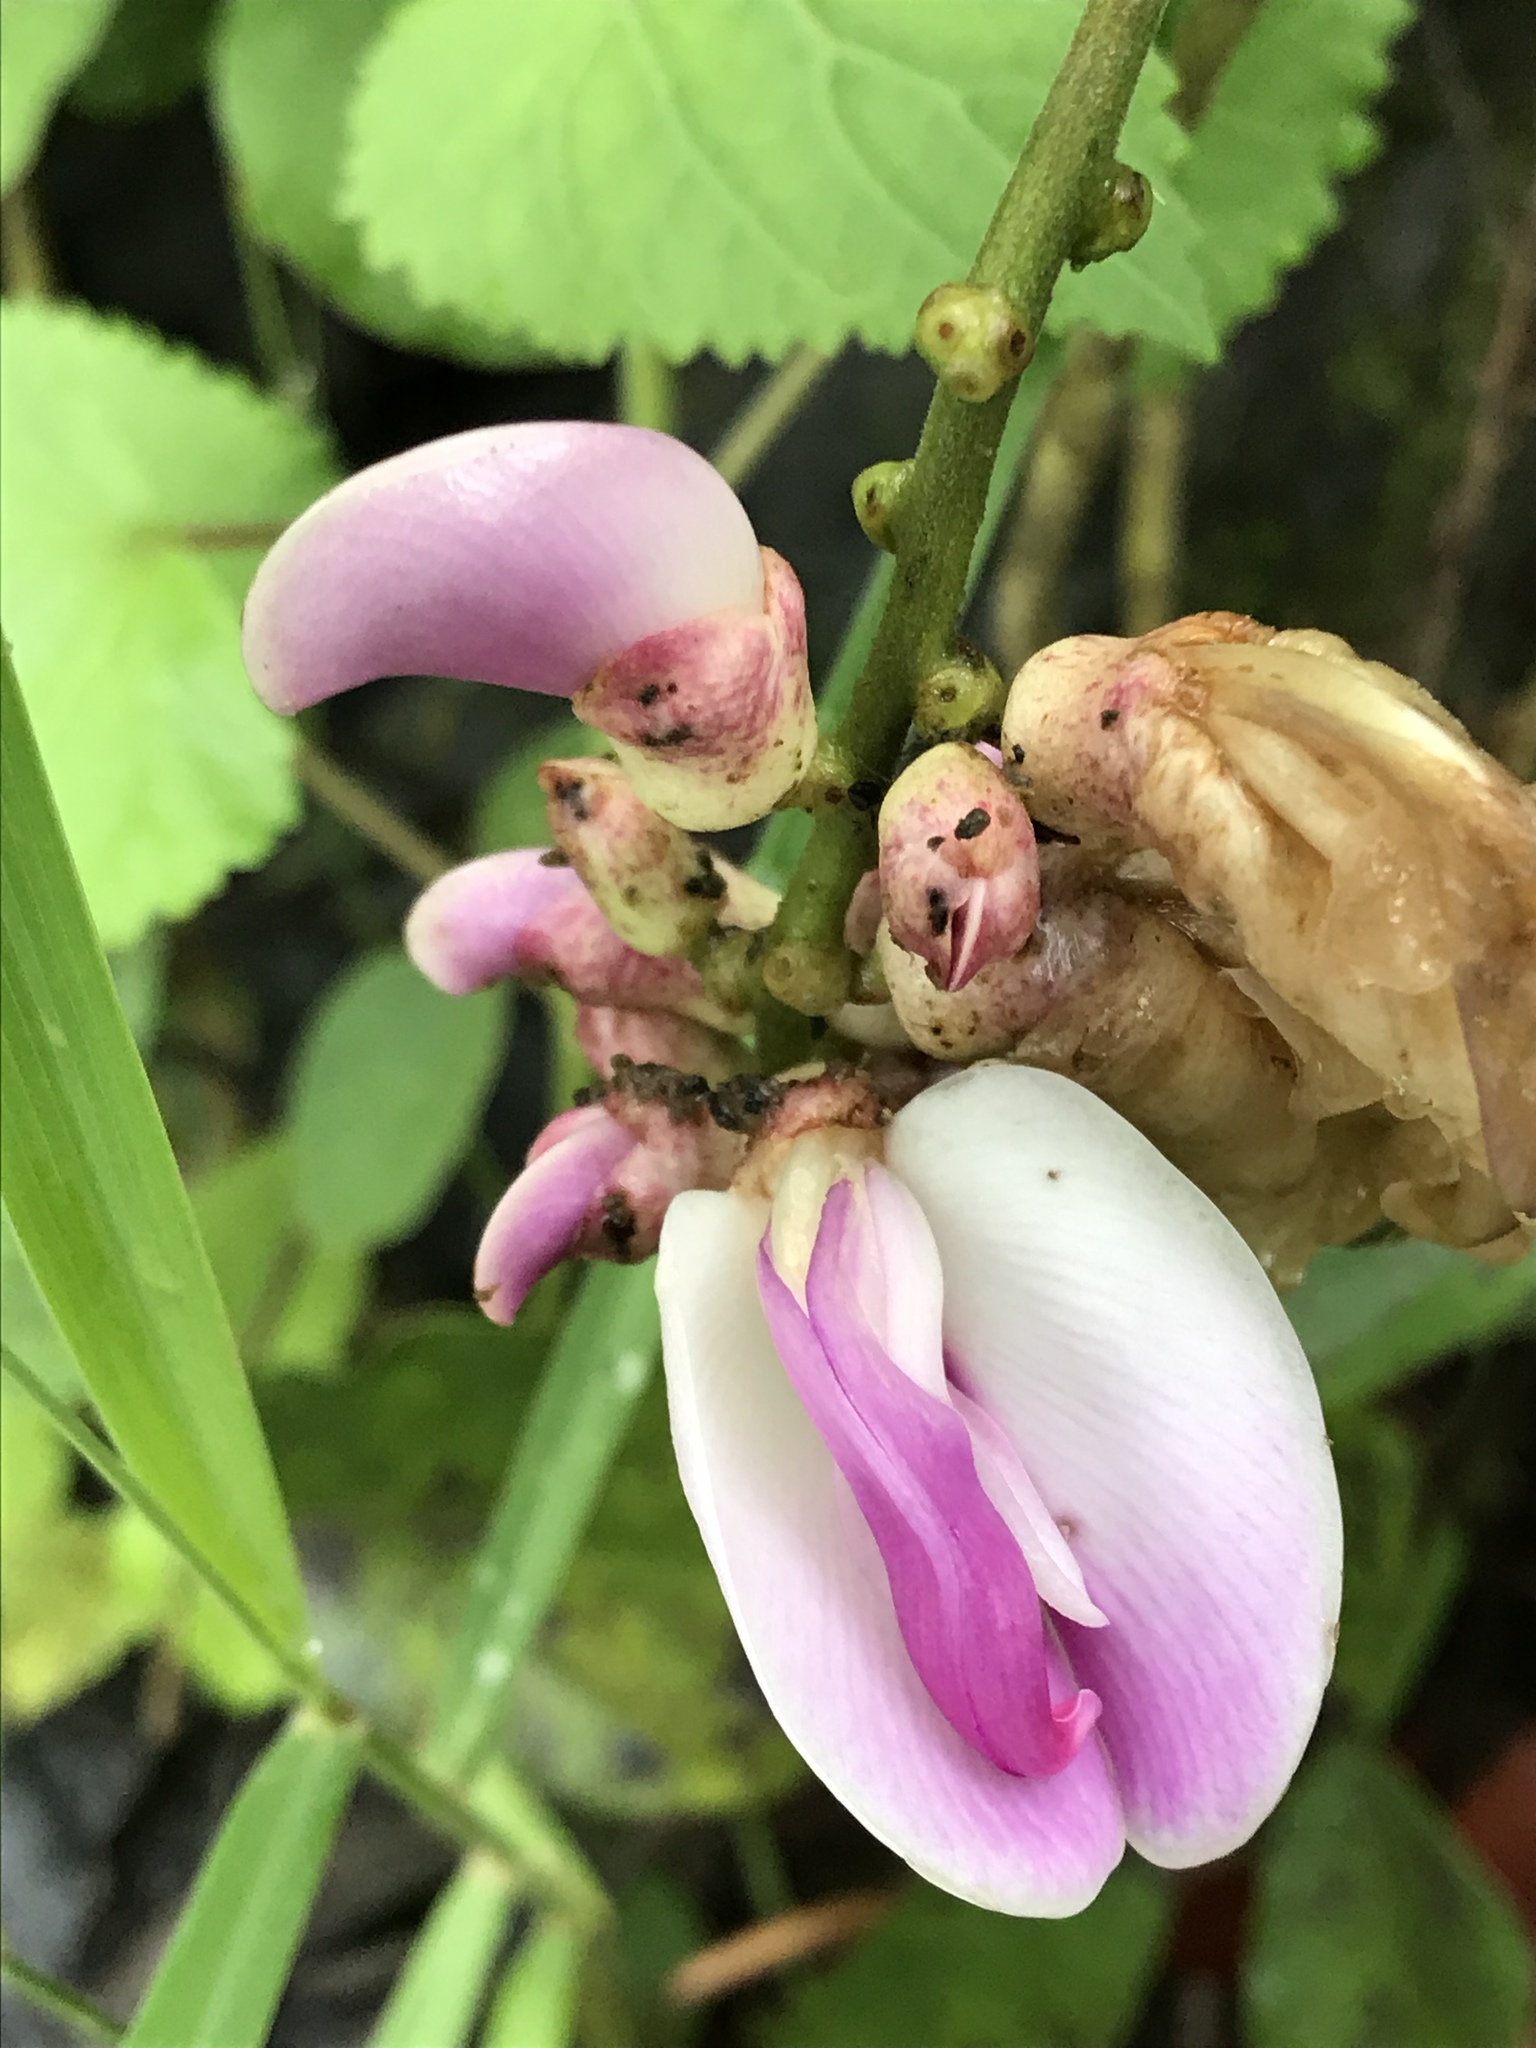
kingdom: Plantae
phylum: Tracheophyta
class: Magnoliopsida
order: Fabales
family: Fabaceae
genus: Canavalia
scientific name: Canavalia septentrionalis
